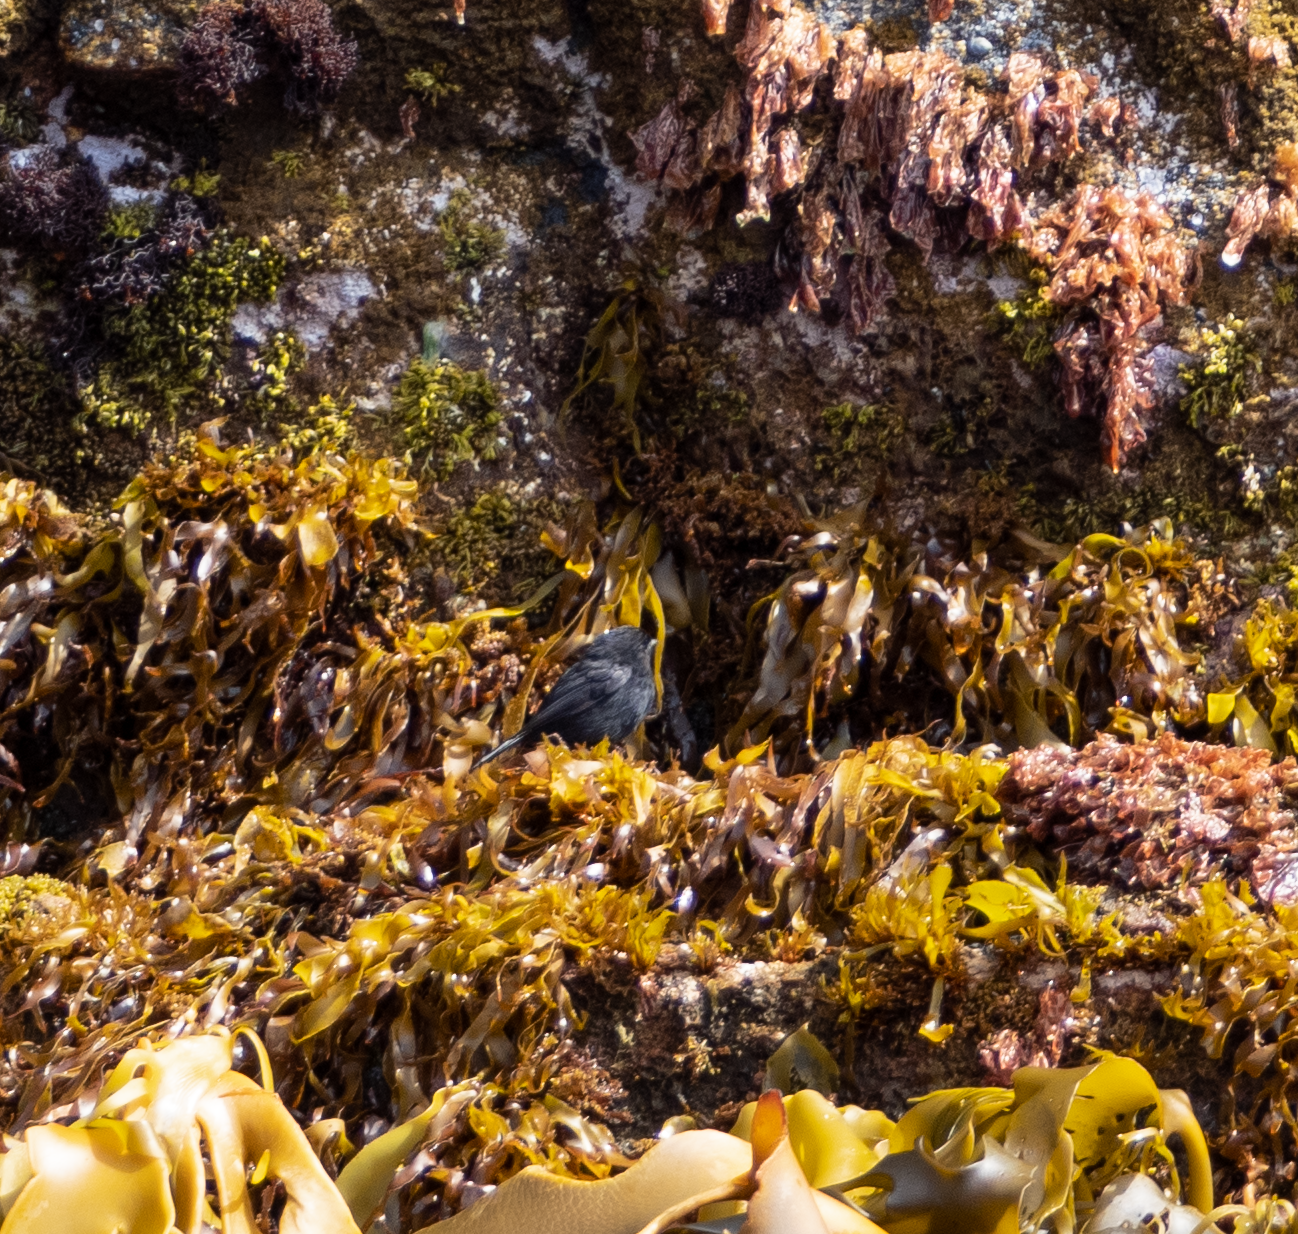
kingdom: Animalia
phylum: Chordata
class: Aves
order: Passeriformes
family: Petroicidae
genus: Petroica
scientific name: Petroica macrocephala
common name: Tomtit
